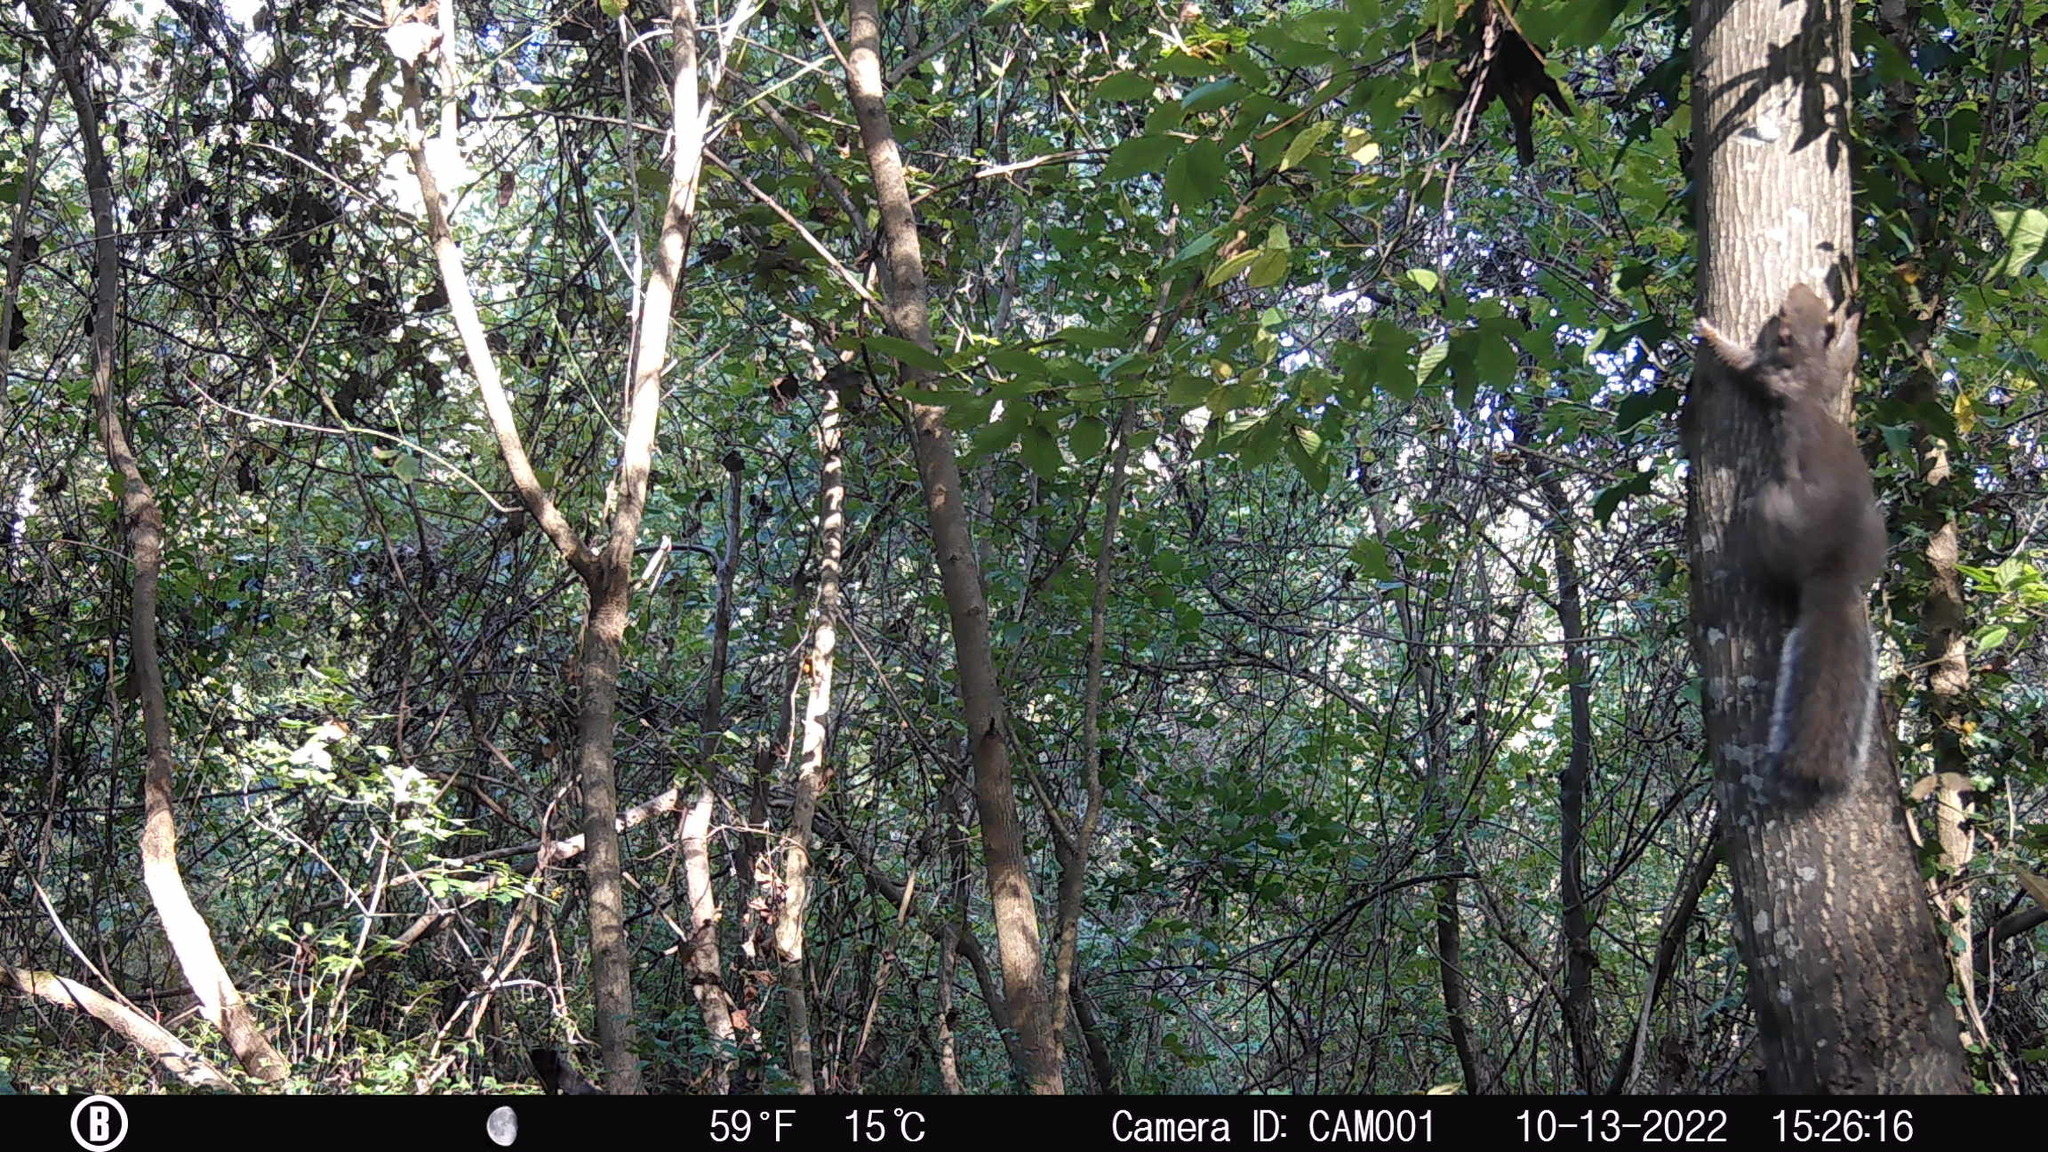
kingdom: Animalia
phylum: Chordata
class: Mammalia
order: Rodentia
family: Sciuridae
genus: Sciurus
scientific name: Sciurus carolinensis
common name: Eastern gray squirrel
